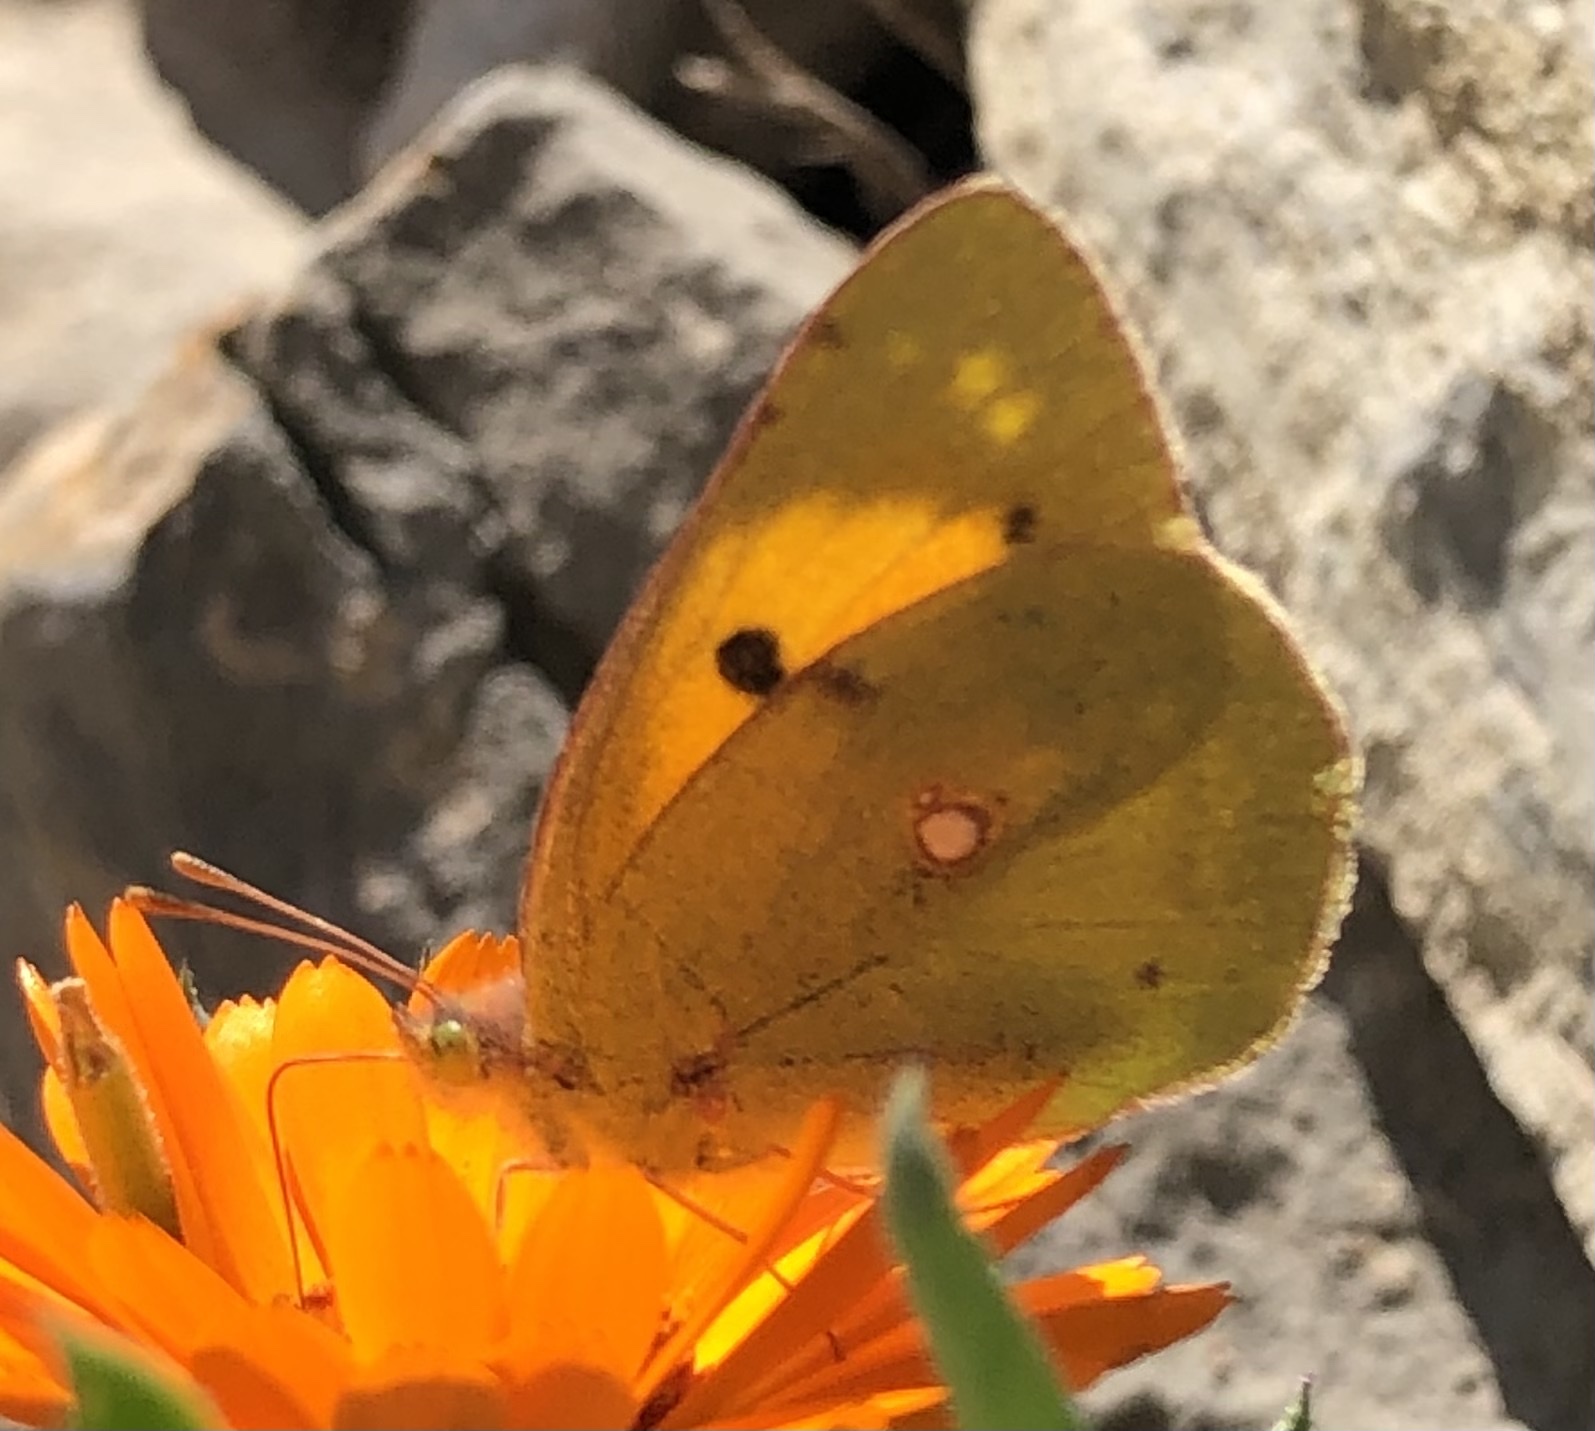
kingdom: Animalia
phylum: Arthropoda
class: Insecta
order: Lepidoptera
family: Pieridae
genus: Colias
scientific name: Colias croceus
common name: Clouded yellow
